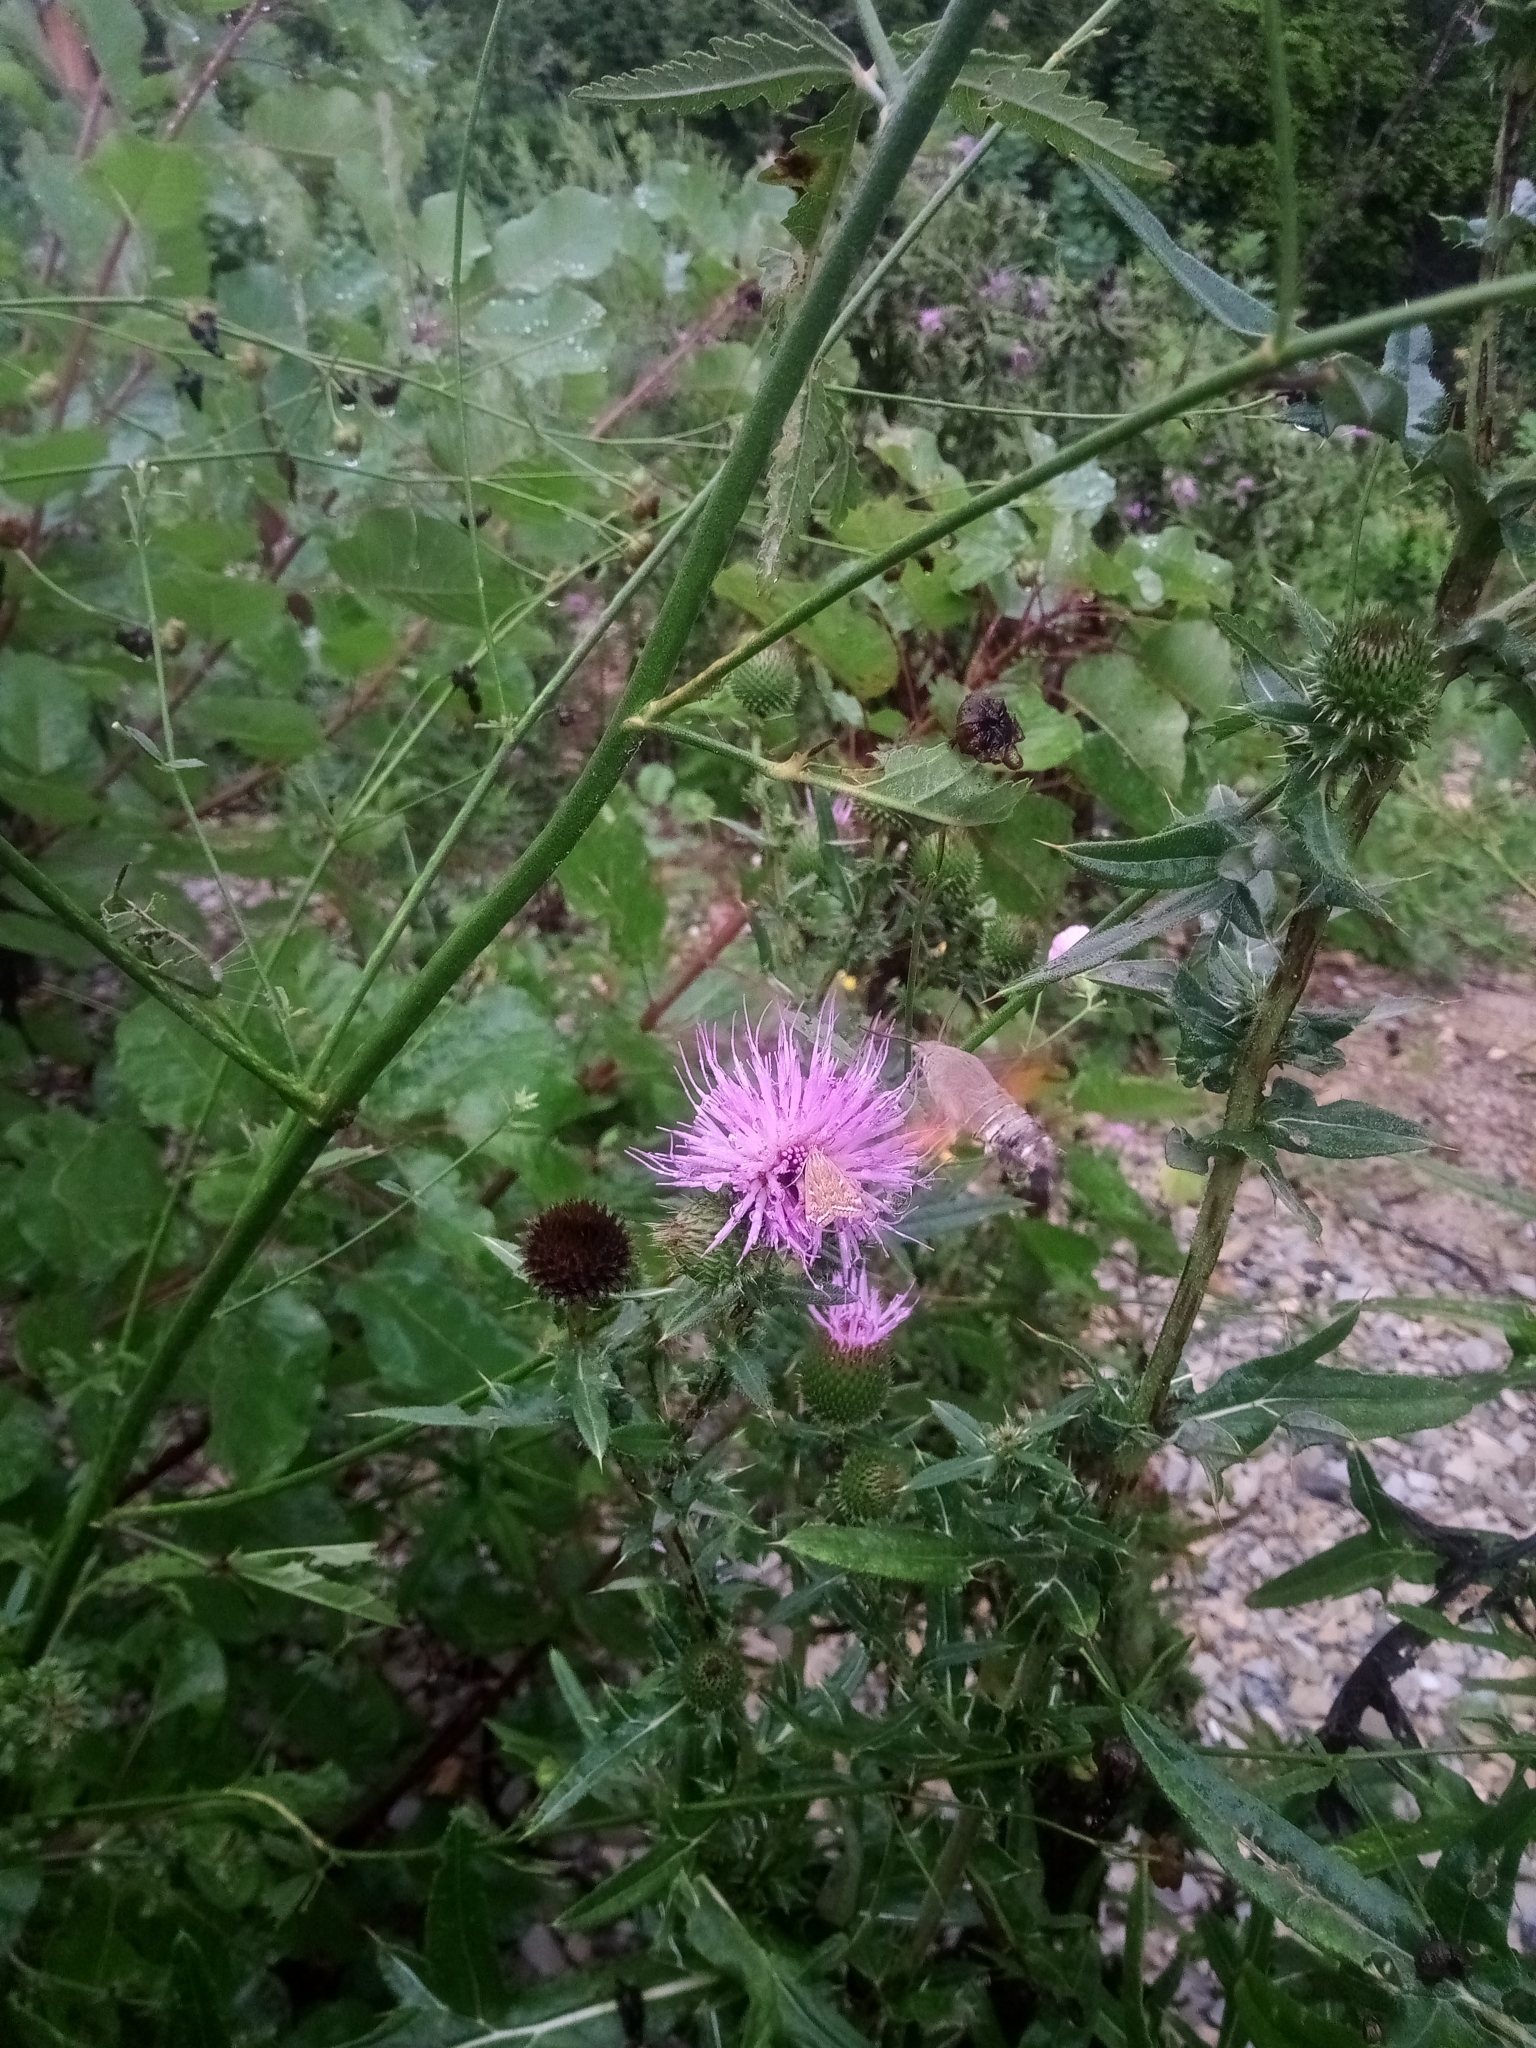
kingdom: Animalia
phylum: Arthropoda
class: Insecta
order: Lepidoptera
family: Sphingidae
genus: Macroglossum
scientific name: Macroglossum stellatarum
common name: Humming-bird hawk-moth
